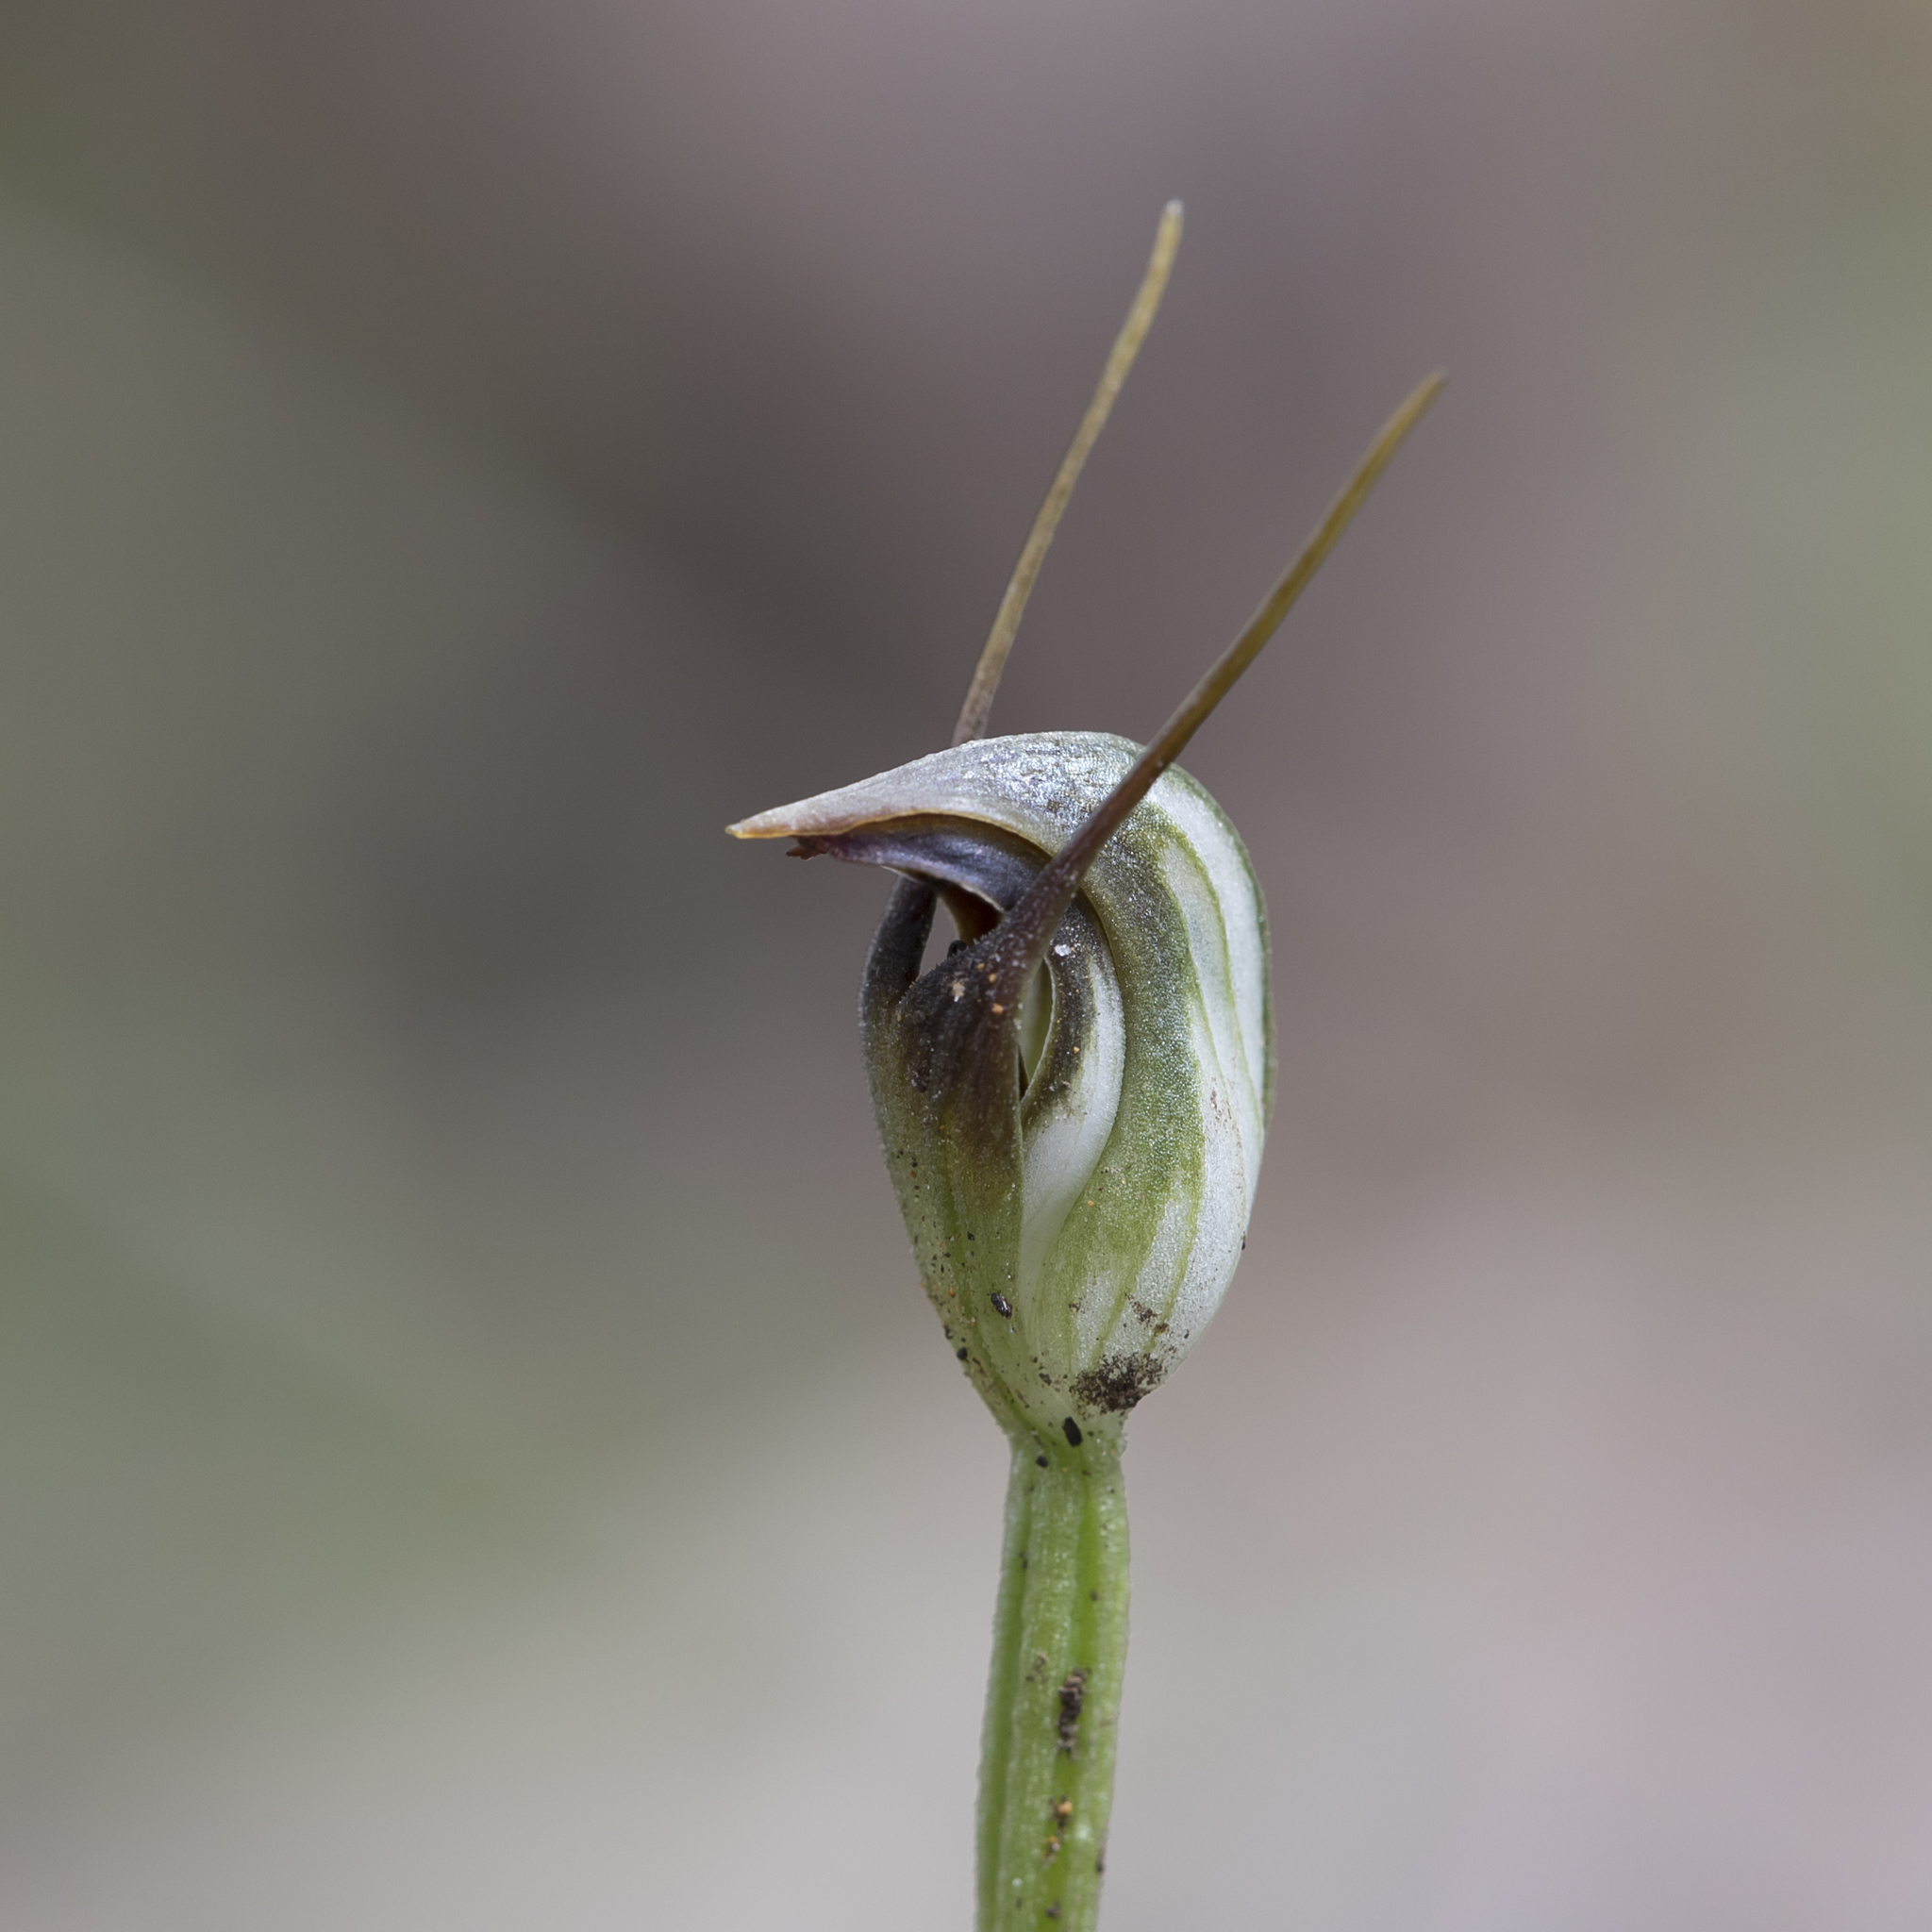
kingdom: Plantae
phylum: Tracheophyta
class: Liliopsida
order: Asparagales
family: Orchidaceae
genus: Pterostylis
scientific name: Pterostylis pedunculata
